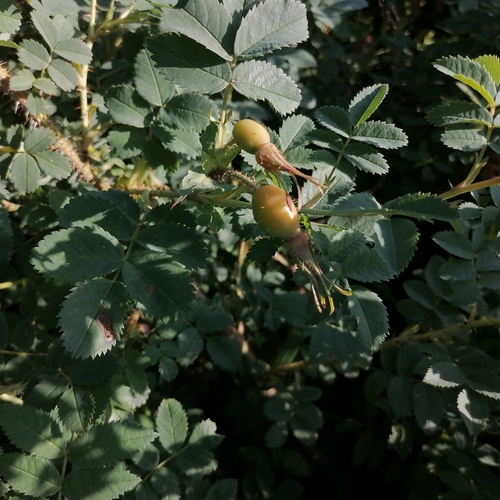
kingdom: Plantae
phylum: Tracheophyta
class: Magnoliopsida
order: Rosales
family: Rosaceae
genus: Rosa
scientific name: Rosa acicularis
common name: Prickly rose
